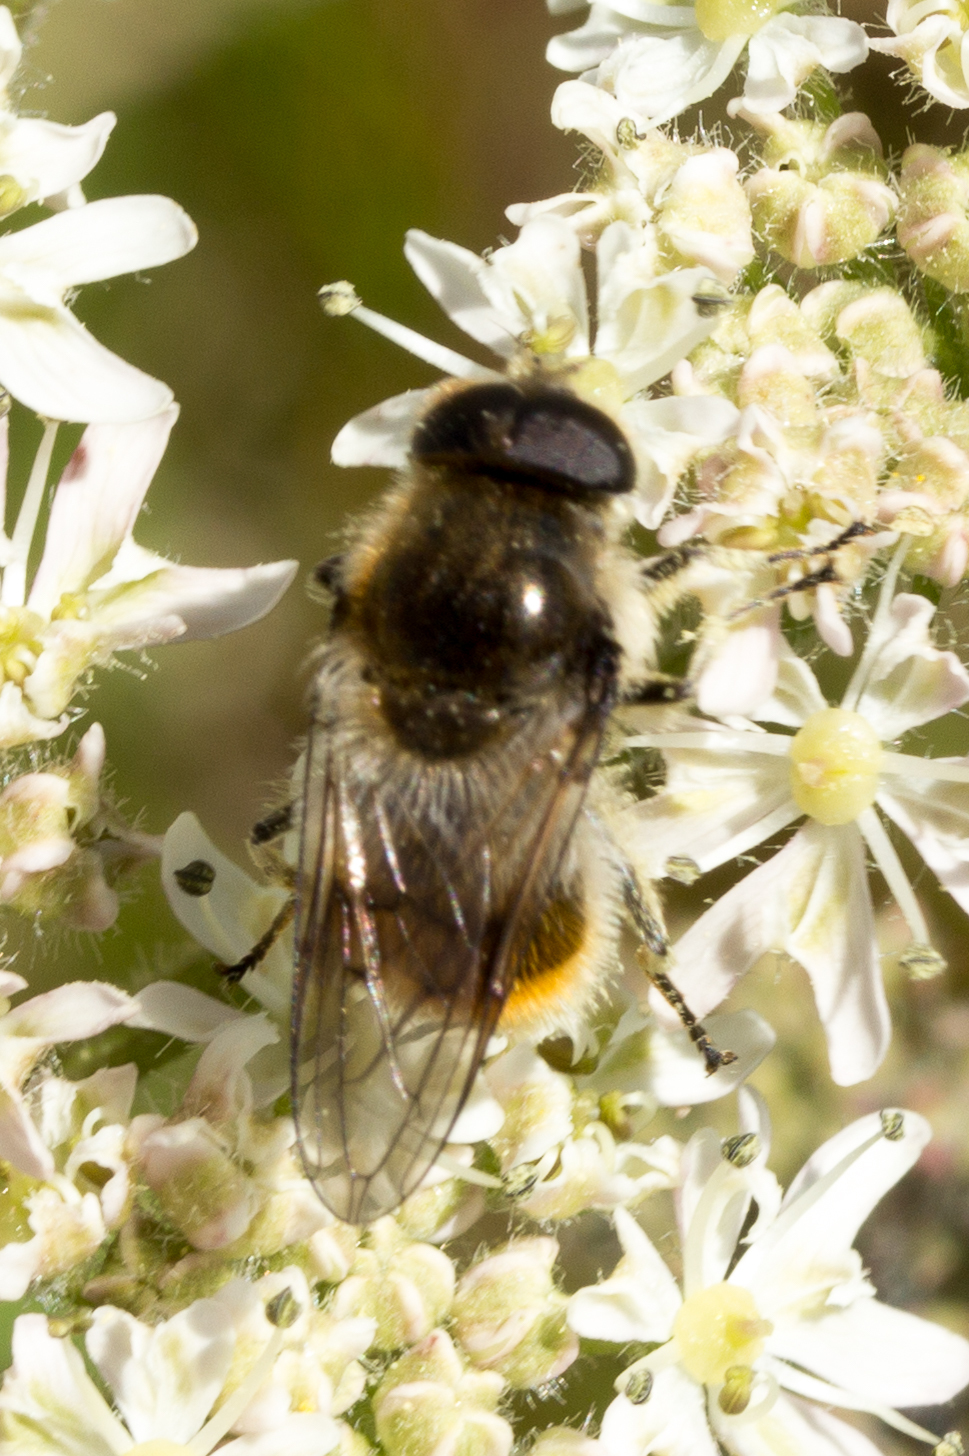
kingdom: Animalia
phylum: Arthropoda
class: Insecta
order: Diptera
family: Syrphidae
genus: Cheilosia
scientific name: Cheilosia illustrata
